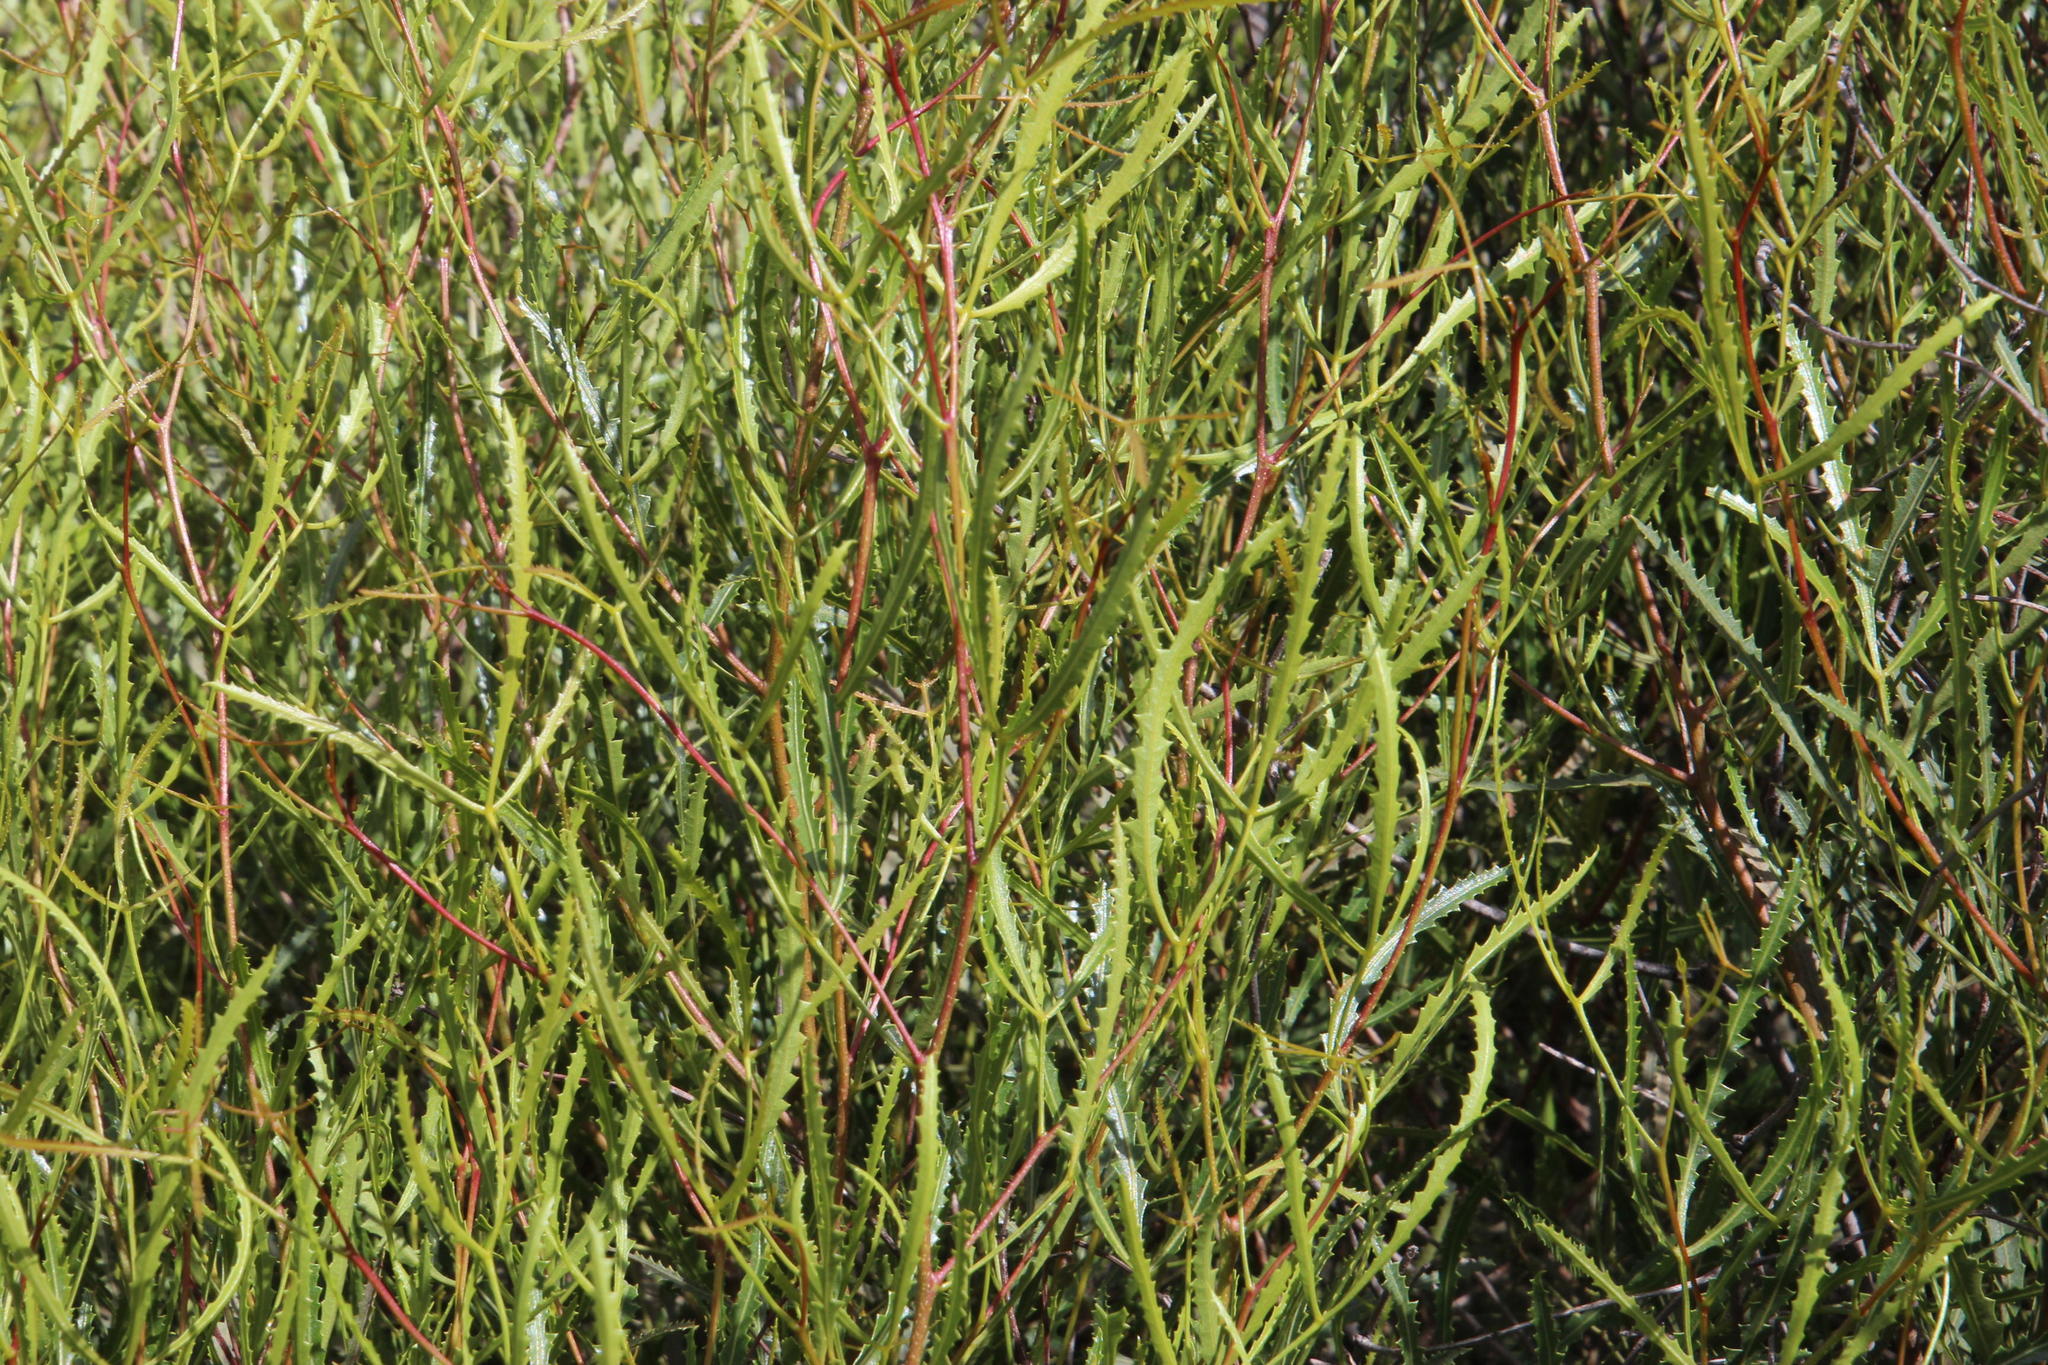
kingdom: Plantae
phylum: Tracheophyta
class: Magnoliopsida
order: Sapindales
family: Anacardiaceae
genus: Searsia
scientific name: Searsia erosa
